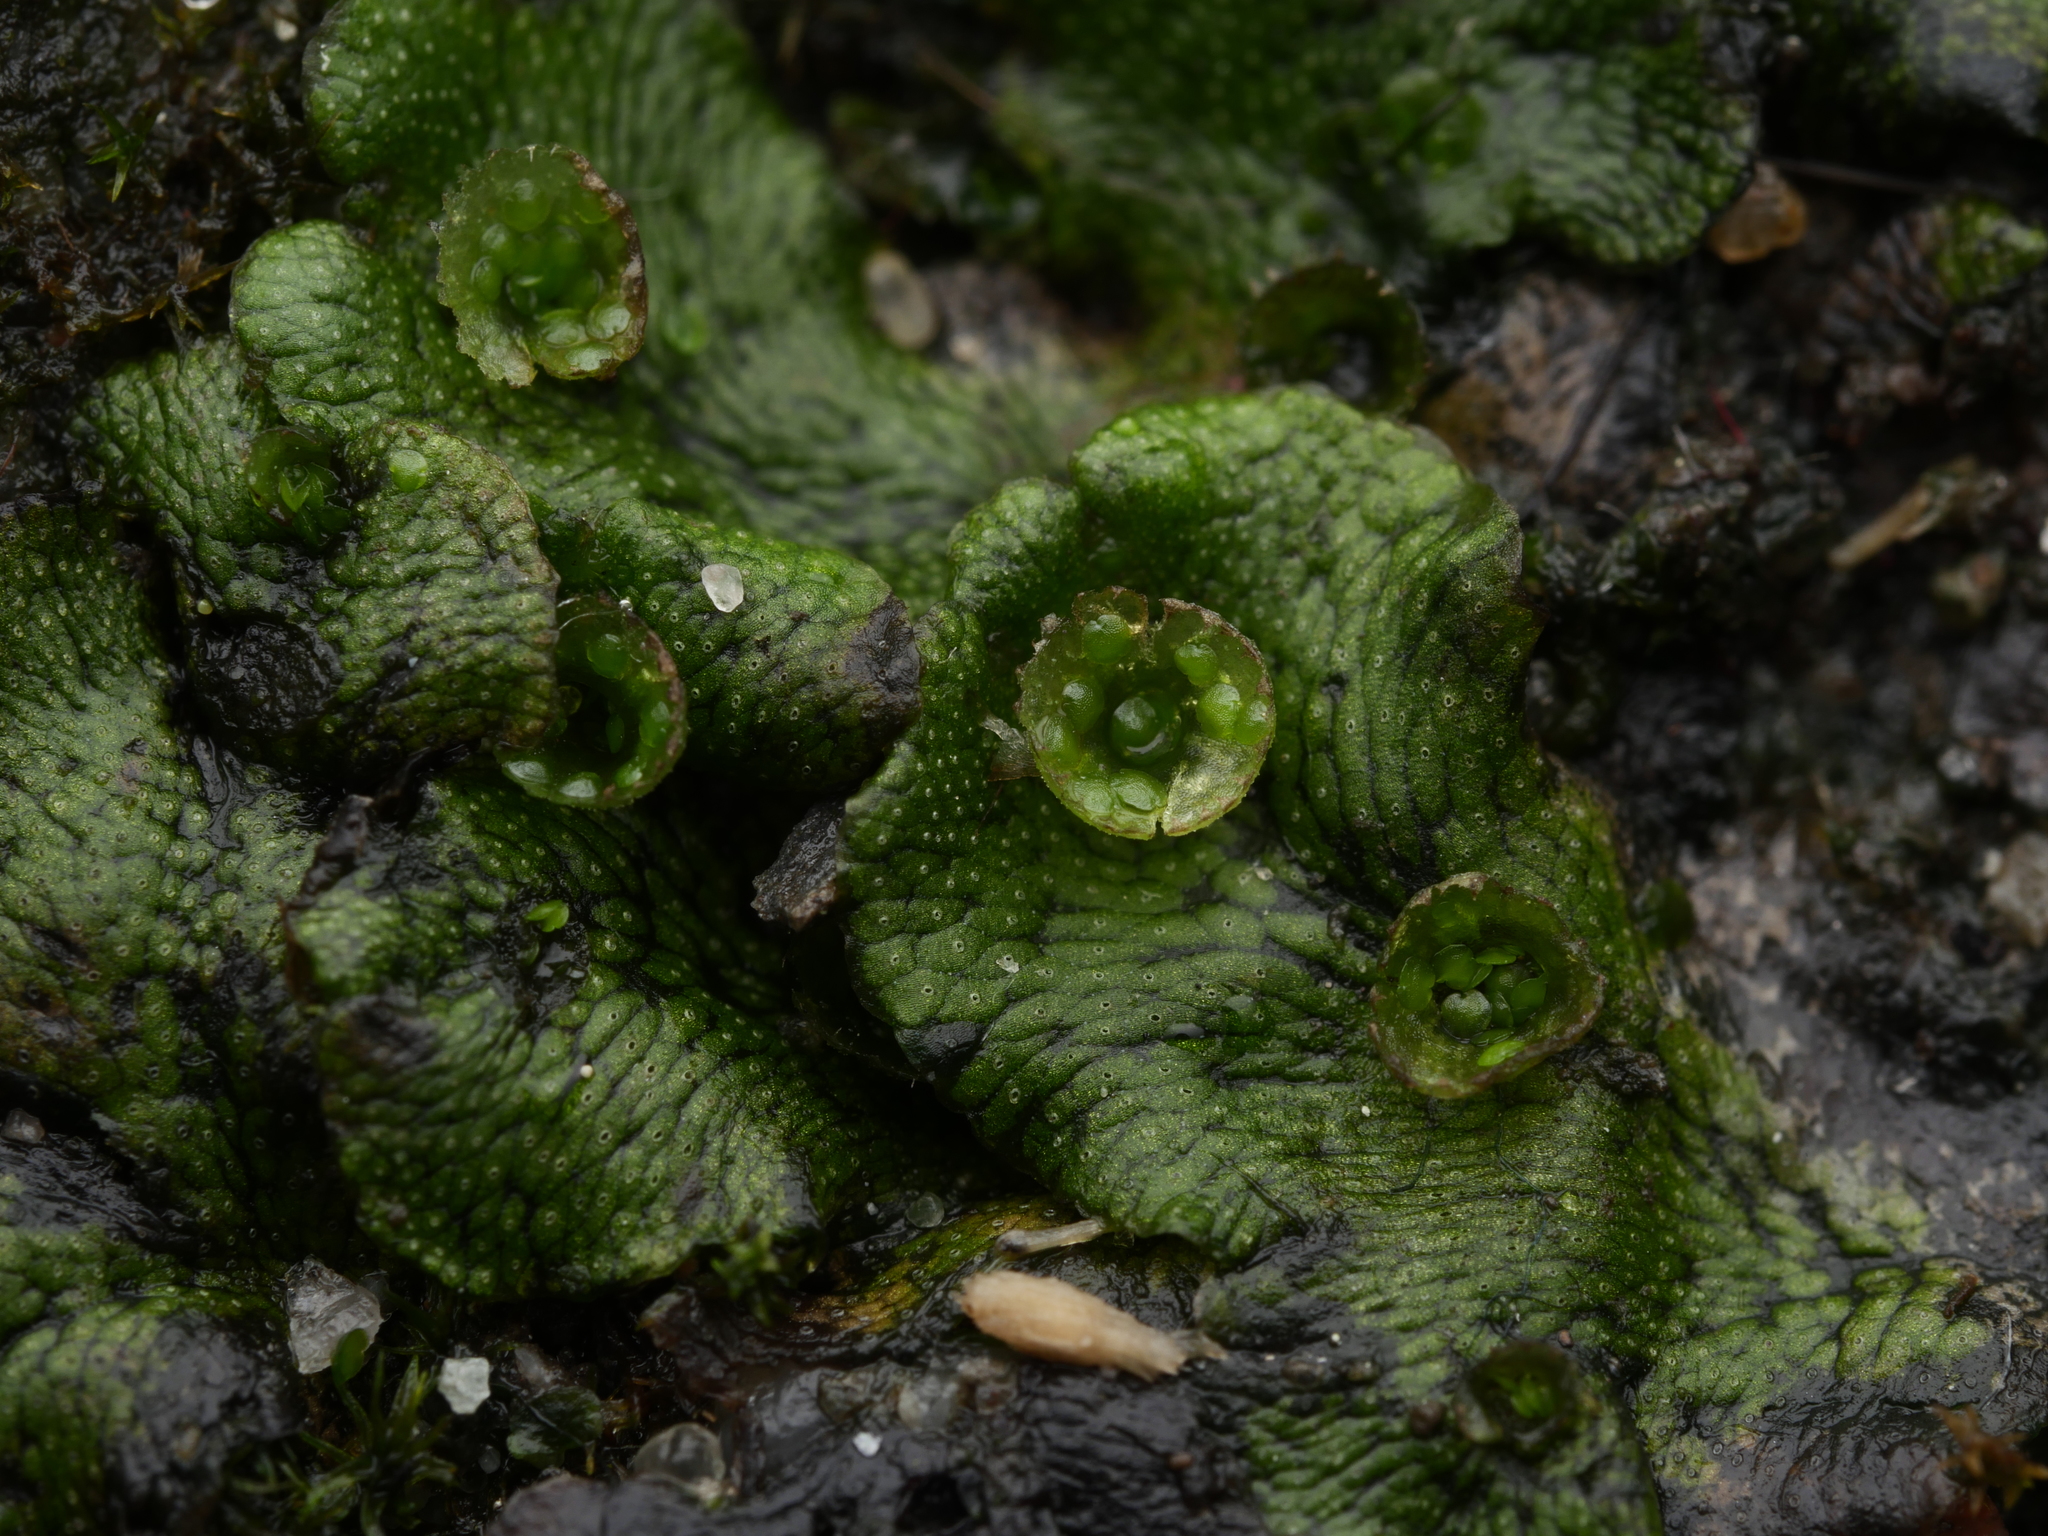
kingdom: Plantae
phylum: Marchantiophyta
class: Marchantiopsida
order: Marchantiales
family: Marchantiaceae
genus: Marchantia
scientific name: Marchantia polymorpha
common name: Common liverwort
